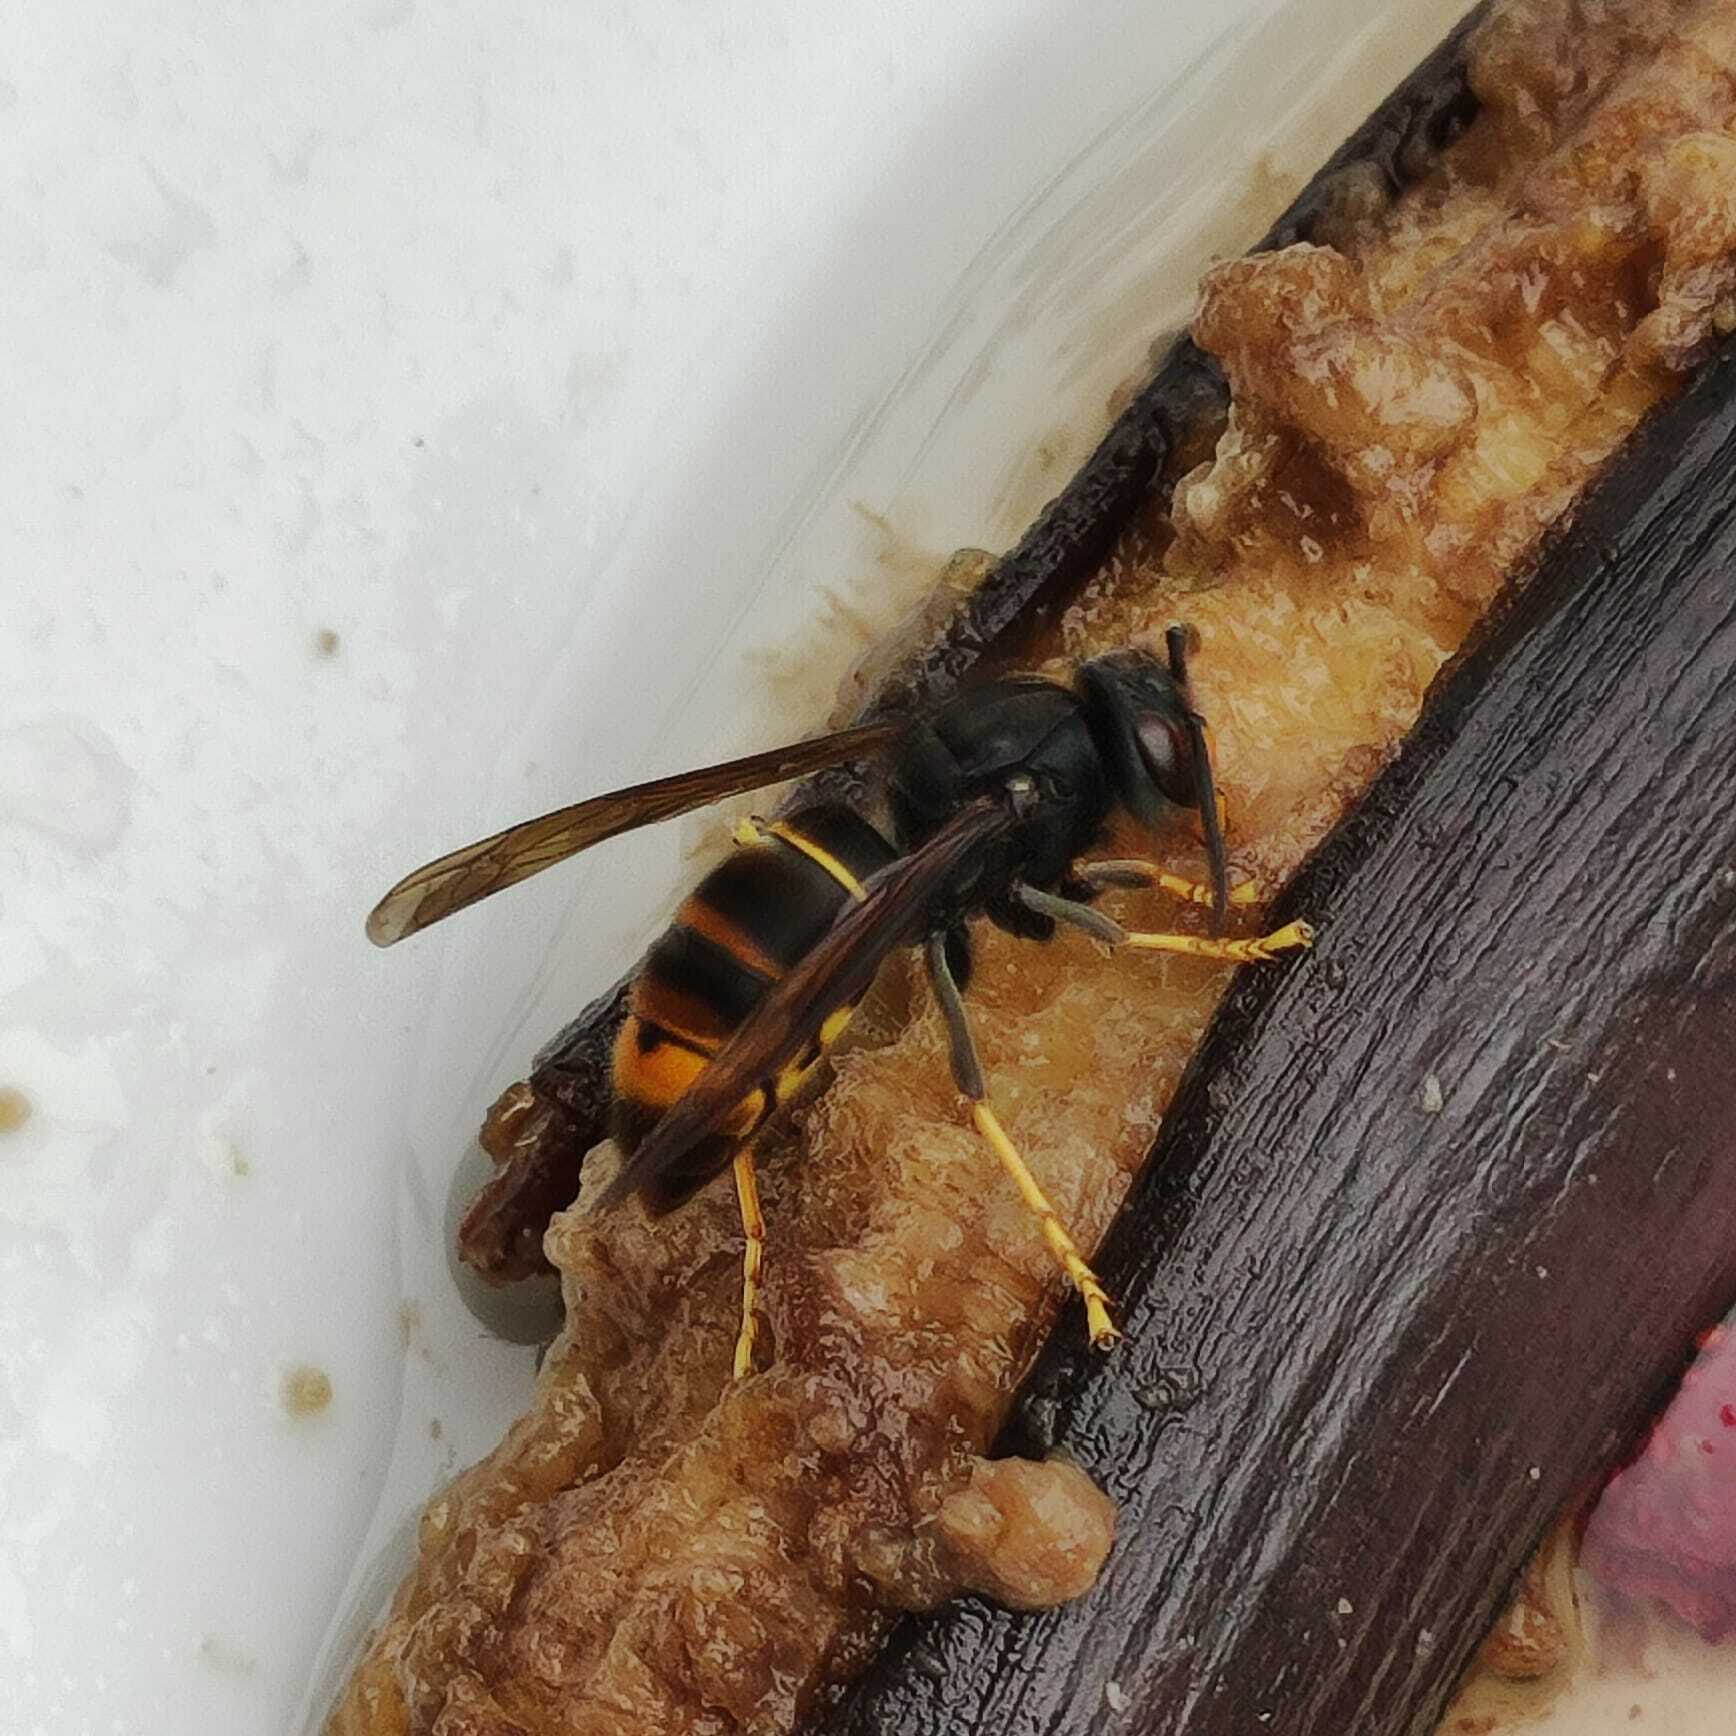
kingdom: Animalia
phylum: Arthropoda
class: Insecta
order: Hymenoptera
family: Vespidae
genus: Vespa
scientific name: Vespa velutina
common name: Asian hornet
